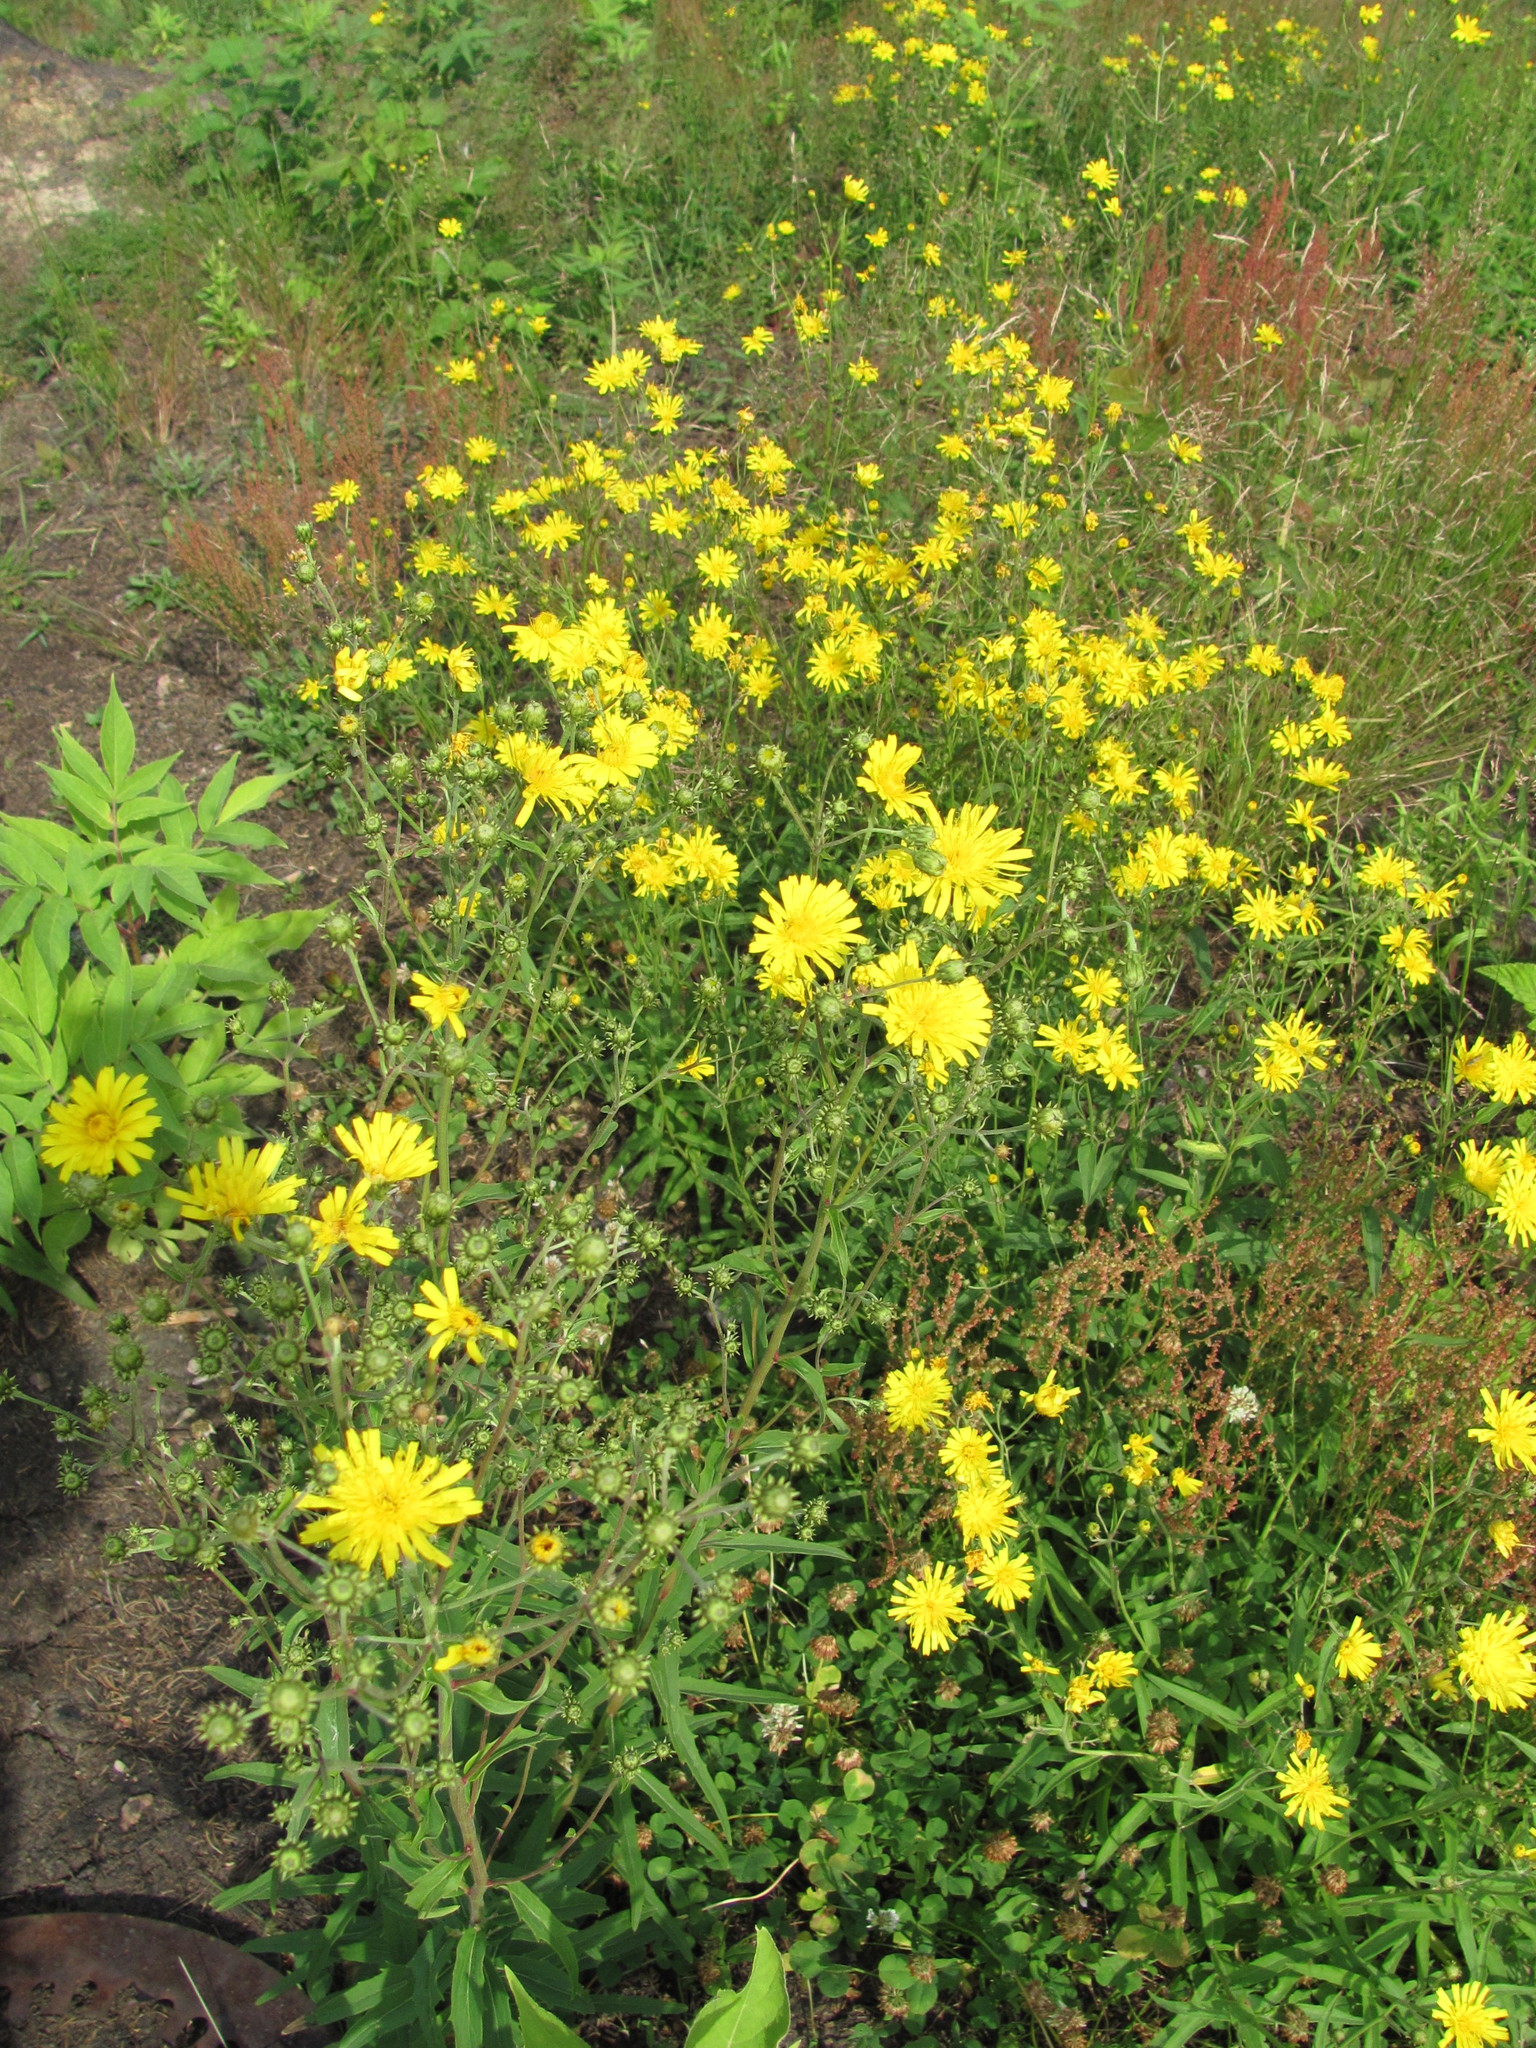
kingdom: Plantae
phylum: Tracheophyta
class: Magnoliopsida
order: Asterales
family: Asteraceae
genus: Hieracium
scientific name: Hieracium umbellatum
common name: Northern hawkweed
